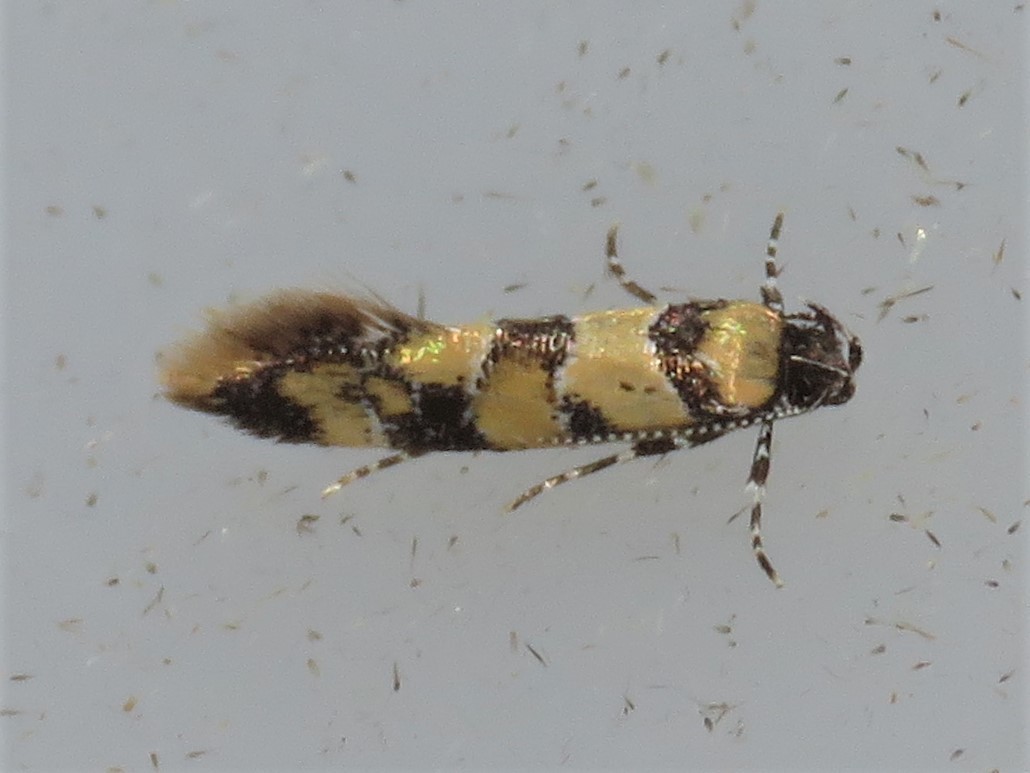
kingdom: Animalia
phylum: Arthropoda
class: Insecta
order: Lepidoptera
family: Oecophoridae
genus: Decantha
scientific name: Decantha borkhausenii
